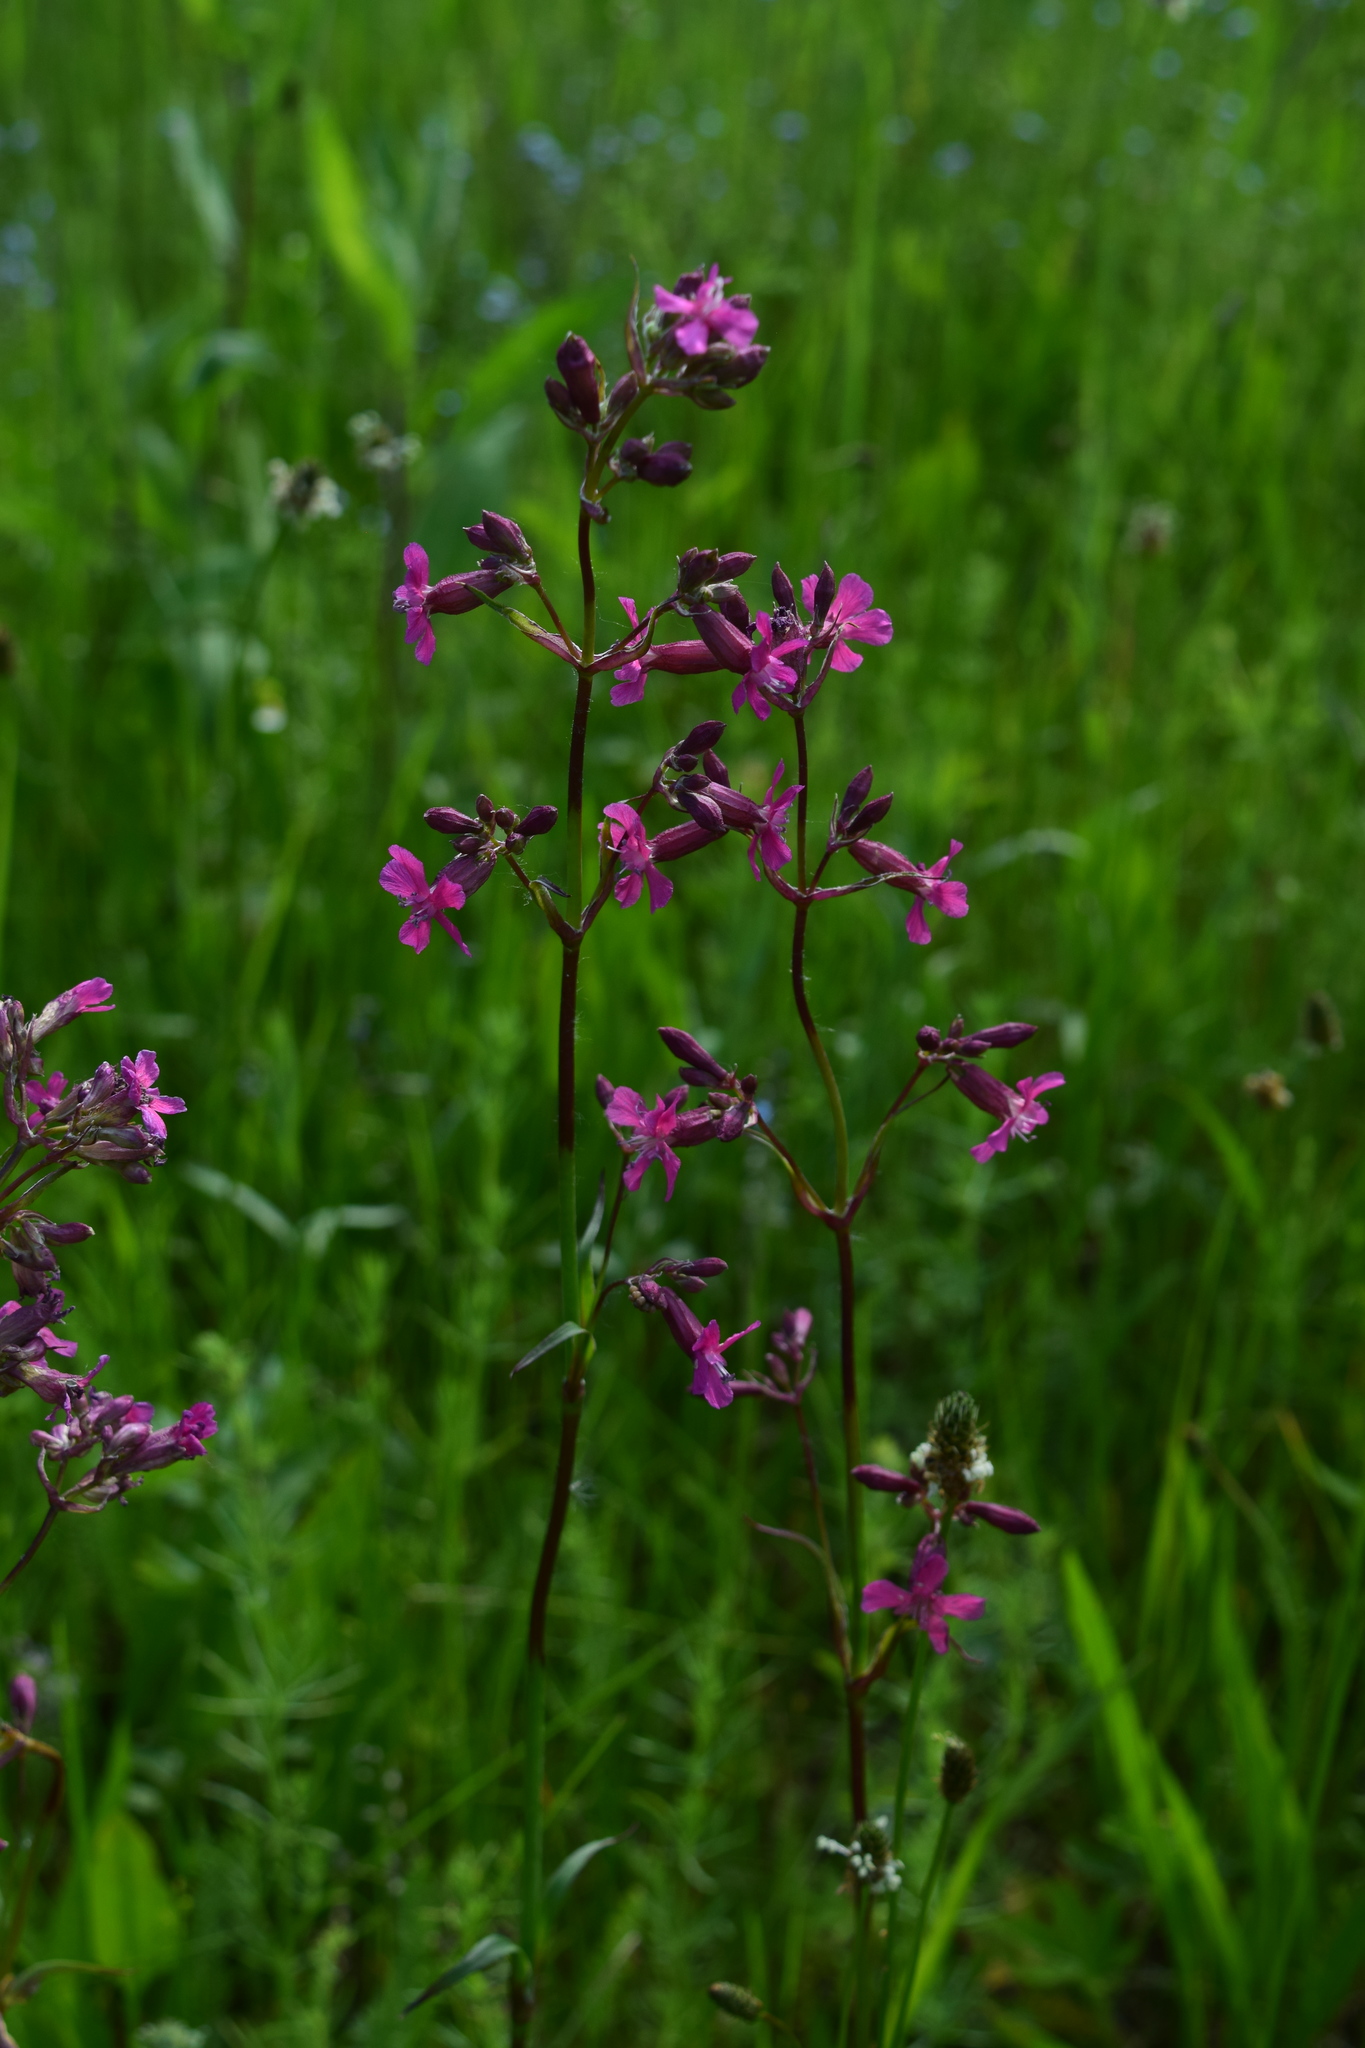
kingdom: Plantae
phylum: Tracheophyta
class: Magnoliopsida
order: Caryophyllales
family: Caryophyllaceae
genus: Viscaria
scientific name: Viscaria vulgaris
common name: Clammy campion
